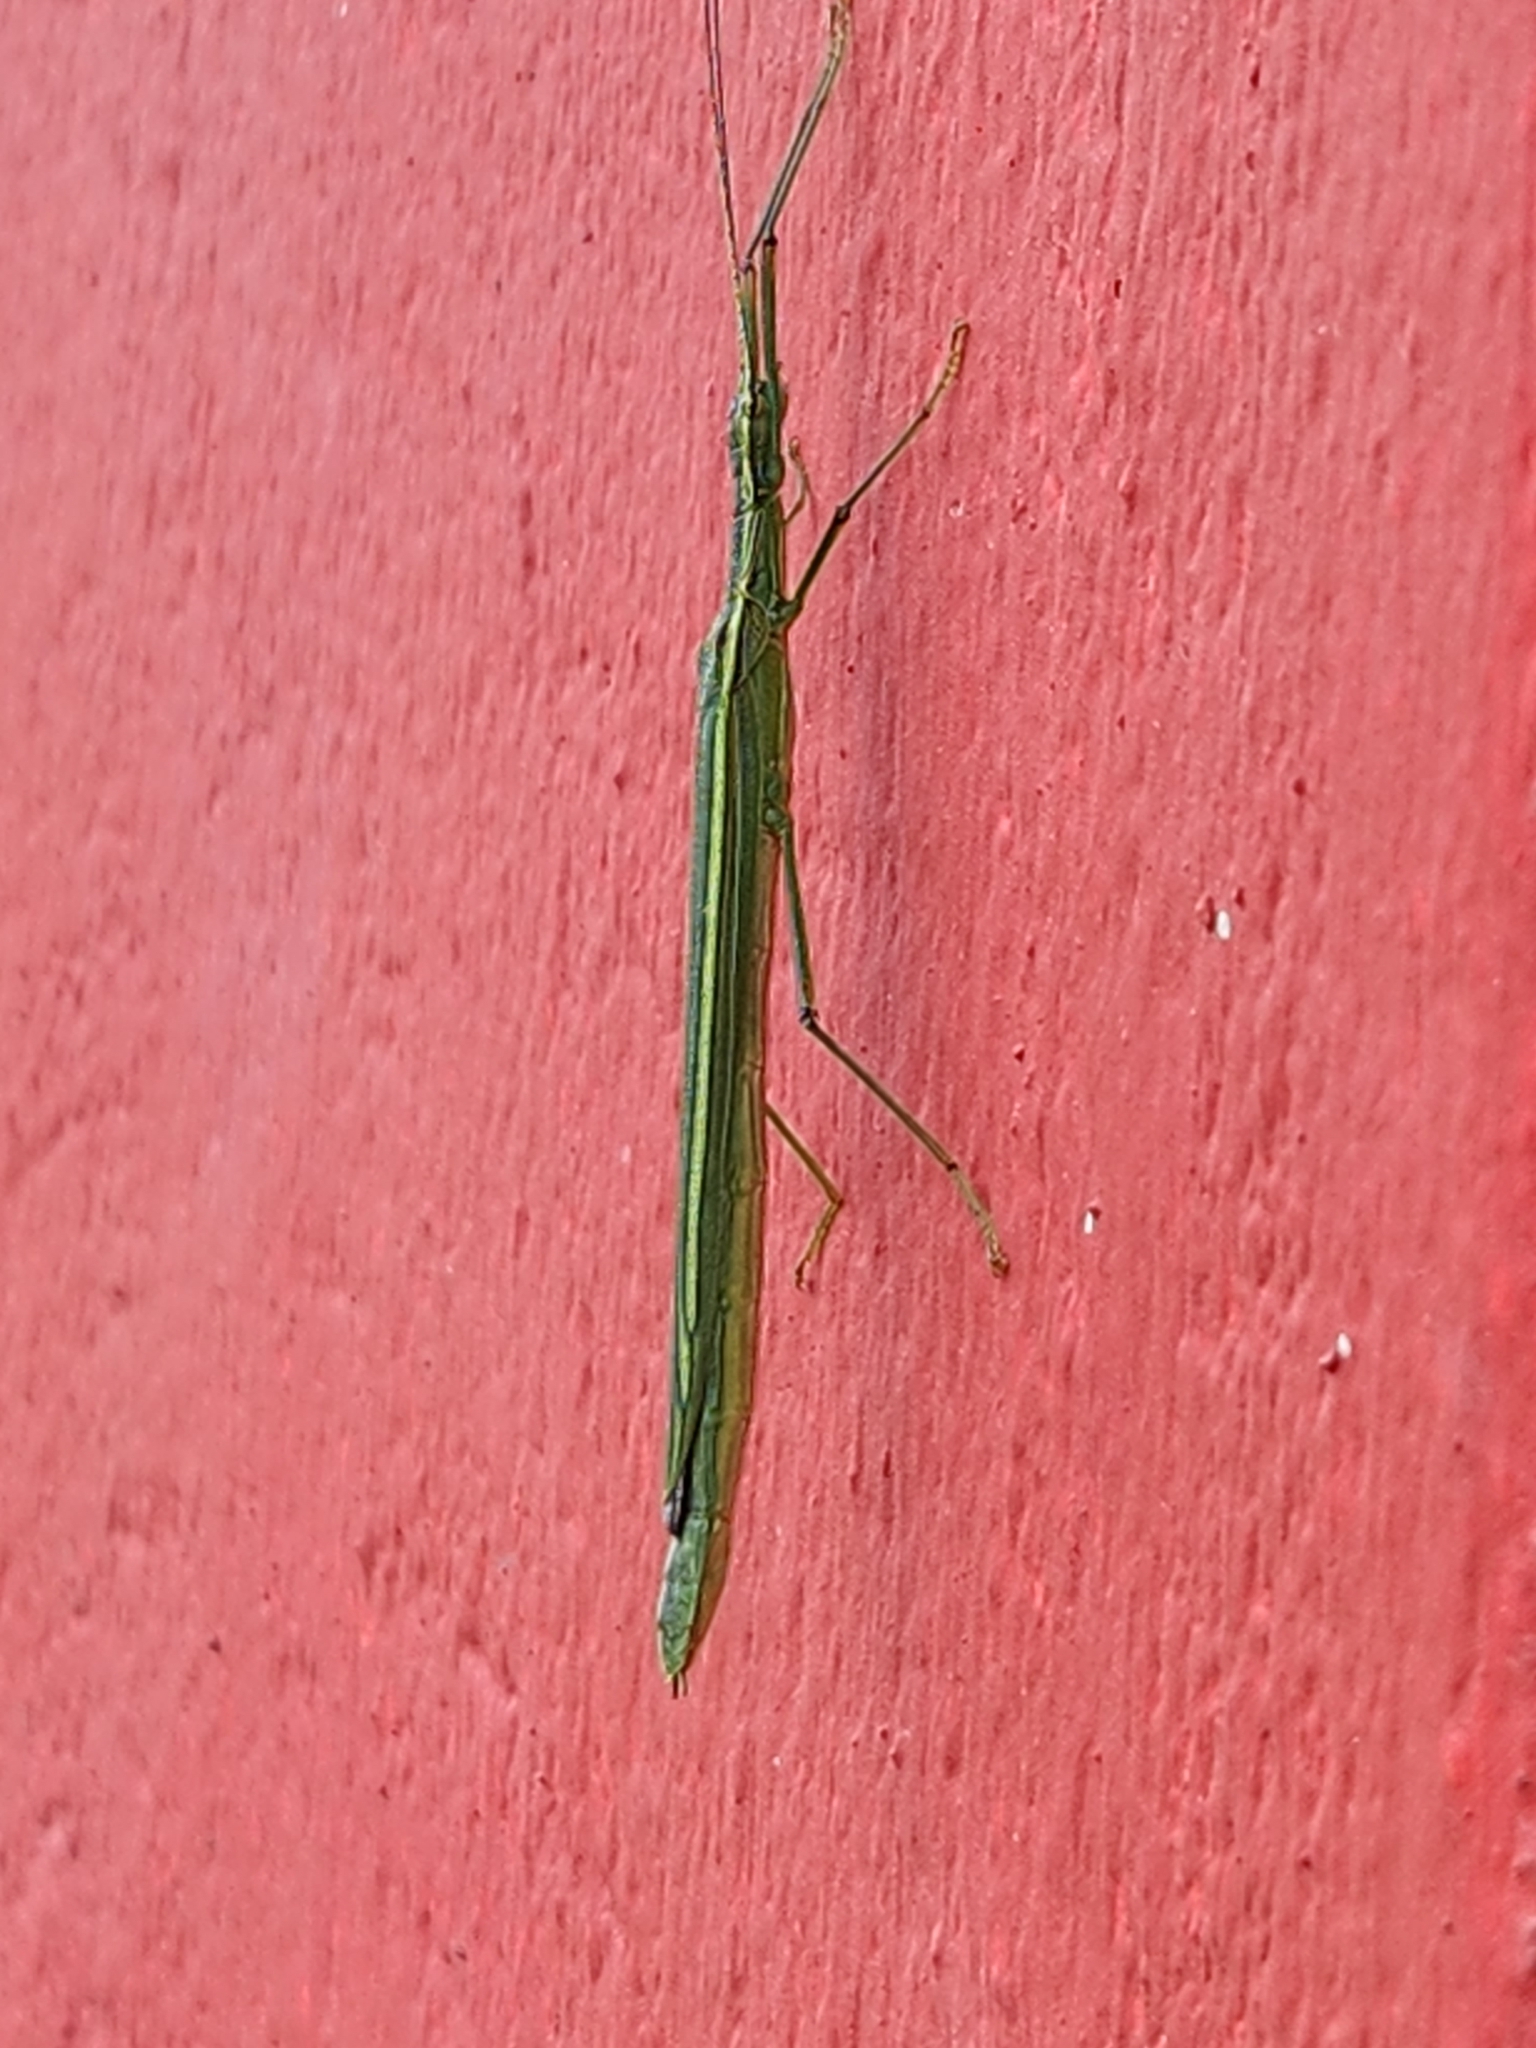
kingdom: Animalia
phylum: Arthropoda
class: Insecta
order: Phasmida
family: Pseudophasmatidae
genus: Brizoides
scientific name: Brizoides soror
